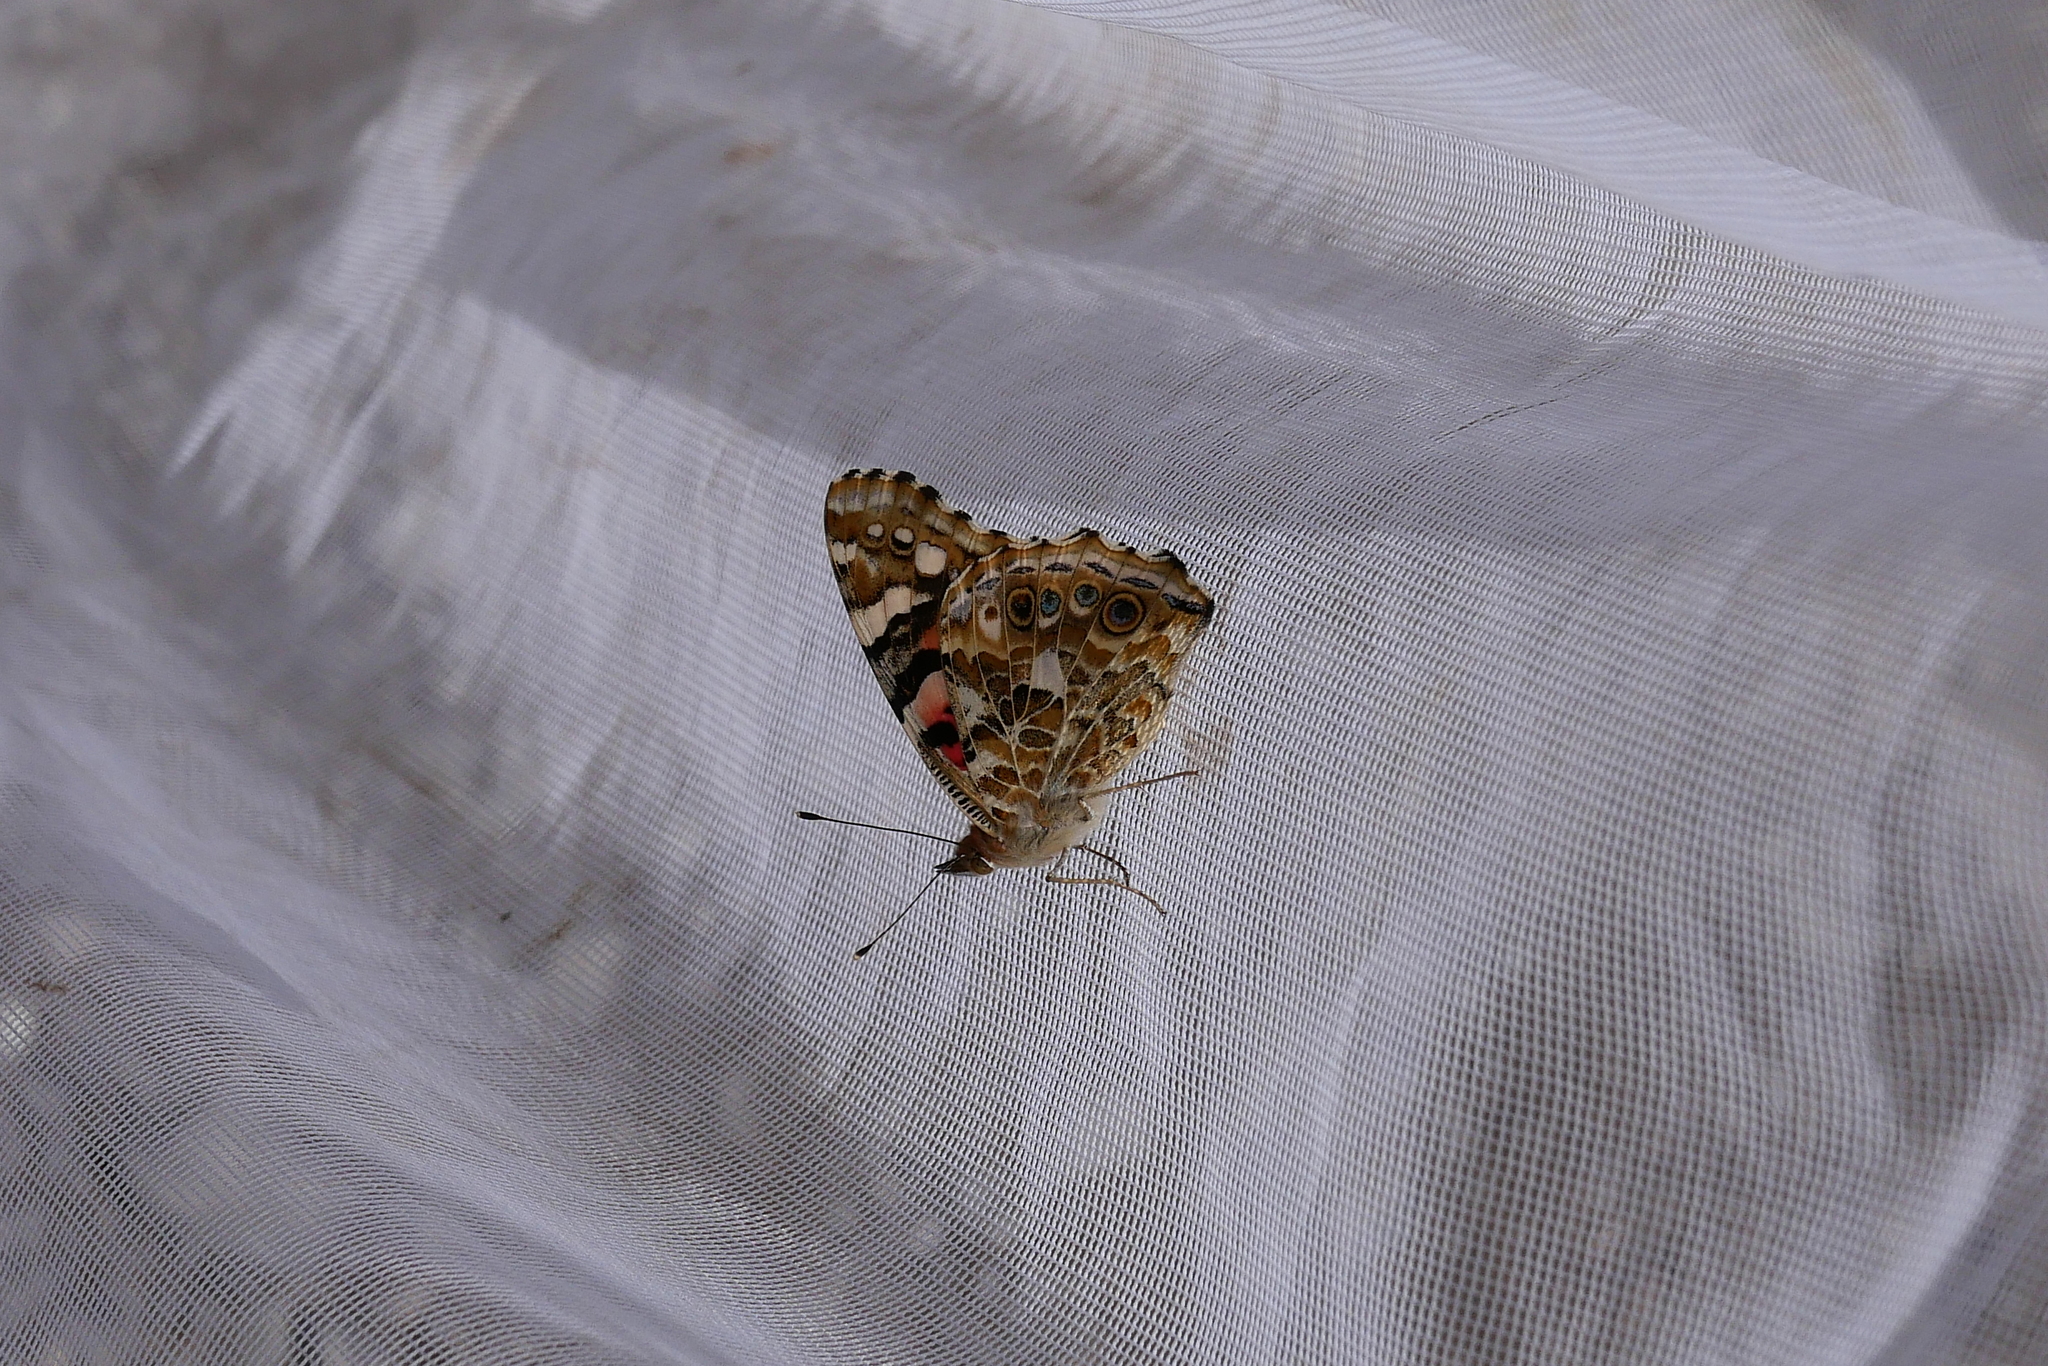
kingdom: Animalia
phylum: Arthropoda
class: Insecta
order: Lepidoptera
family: Nymphalidae
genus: Vanessa
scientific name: Vanessa cardui
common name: Painted lady
